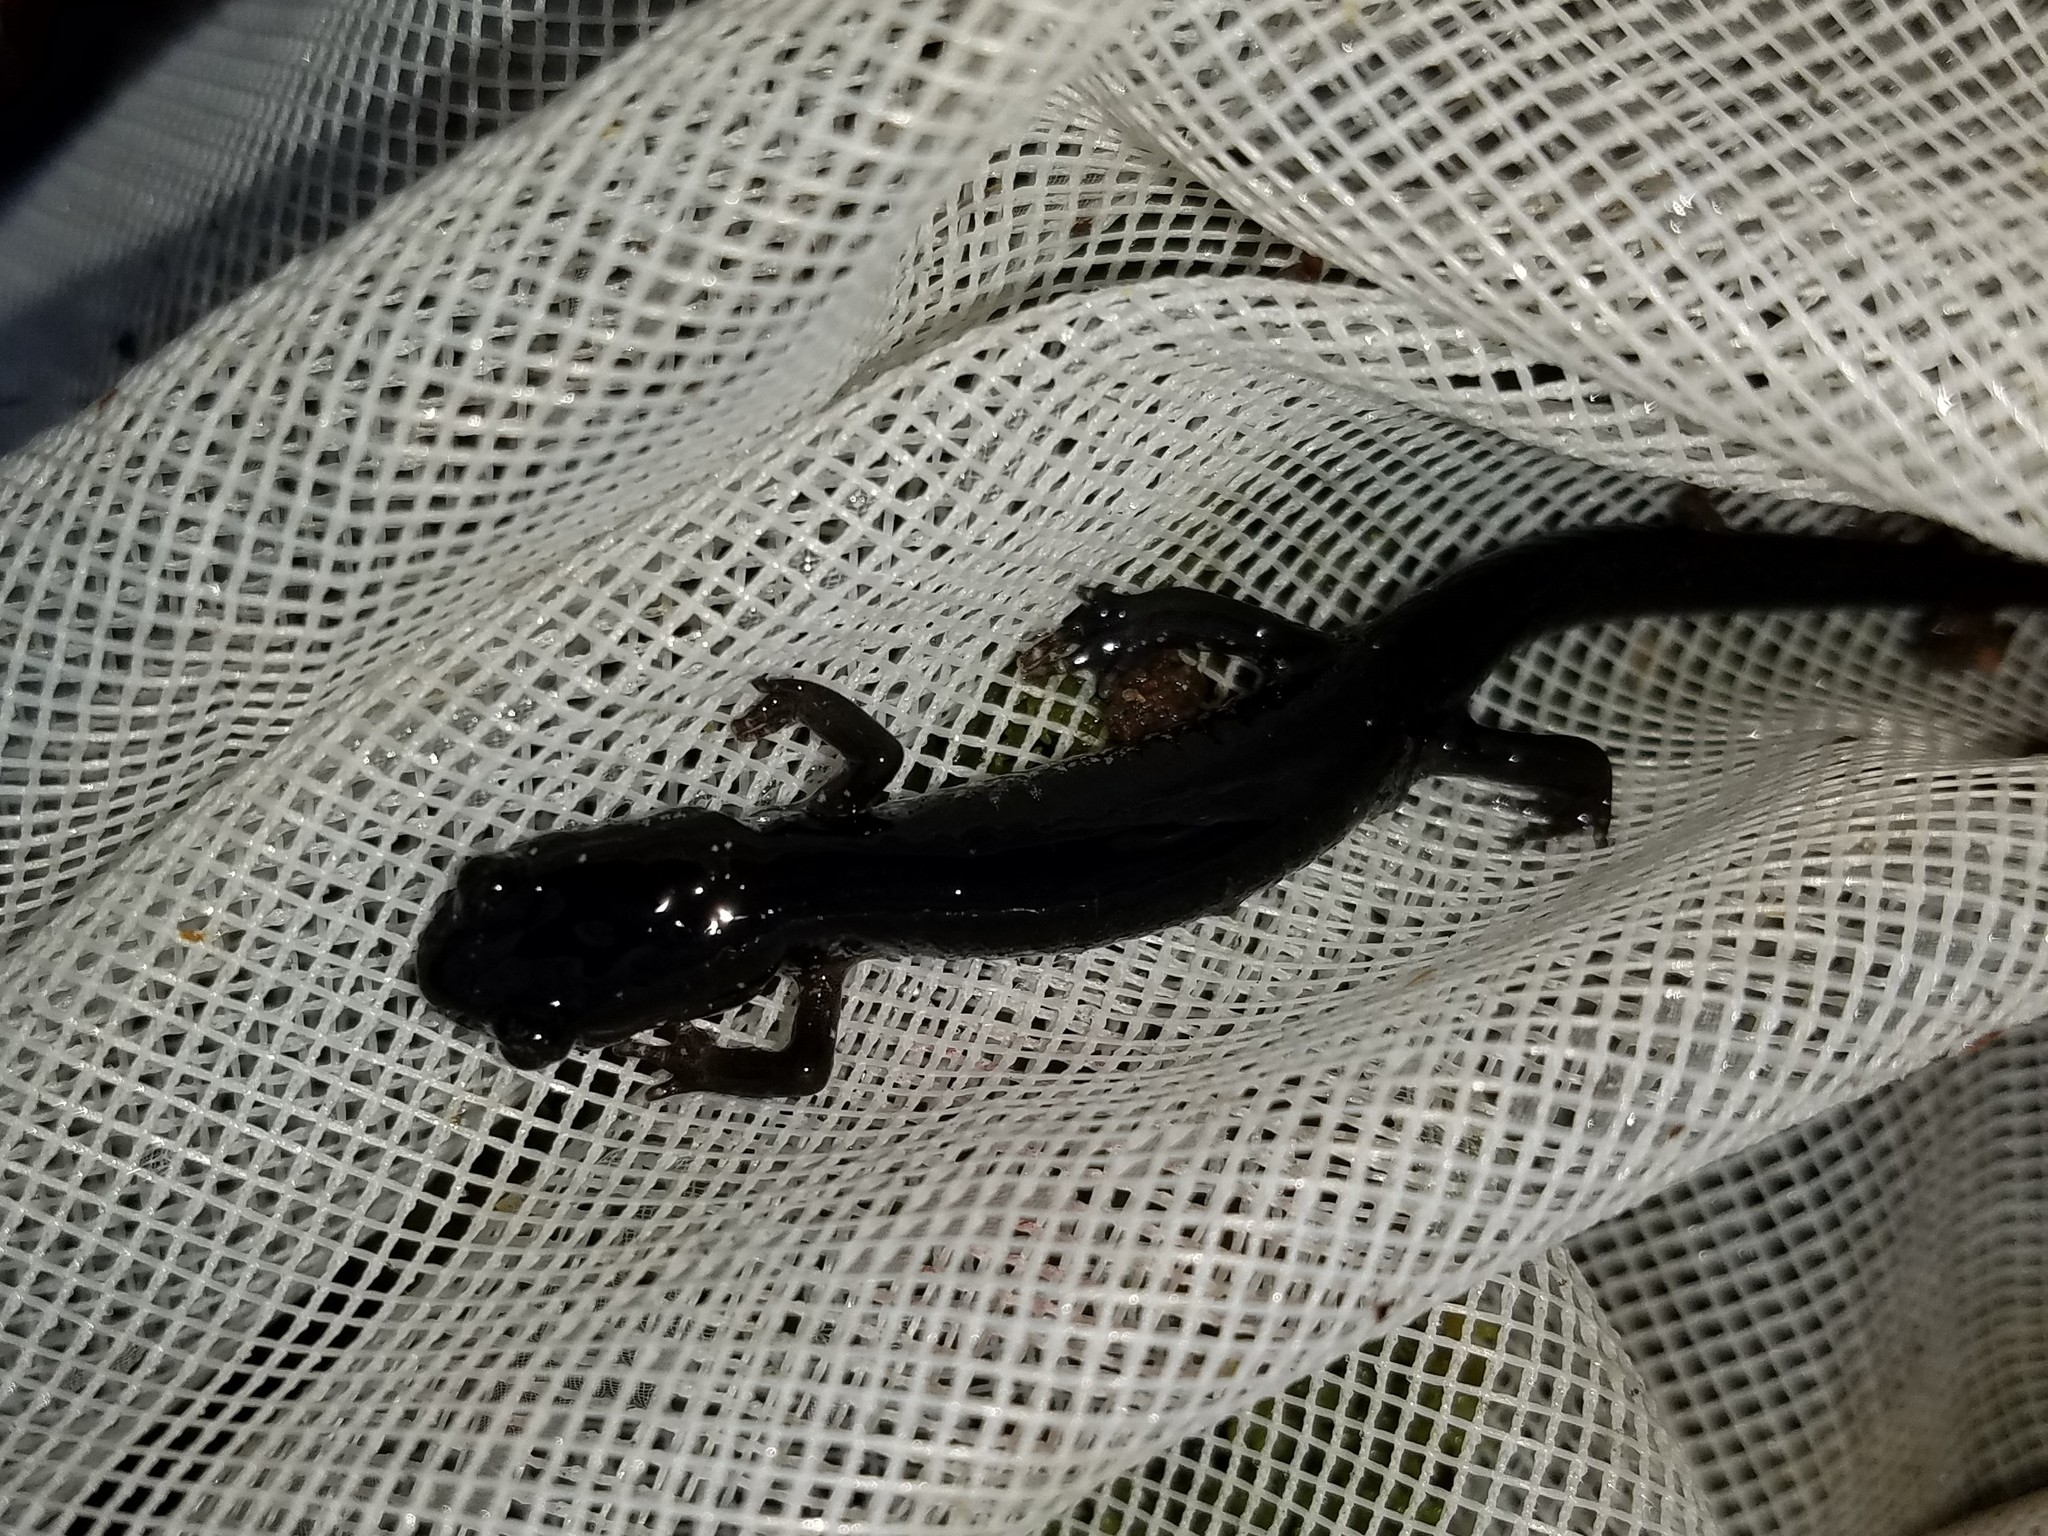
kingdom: Animalia
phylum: Chordata
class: Amphibia
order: Caudata
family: Plethodontidae
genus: Plethodon
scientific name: Plethodon chattahoochee
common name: Chattahoochee slimy salamander
